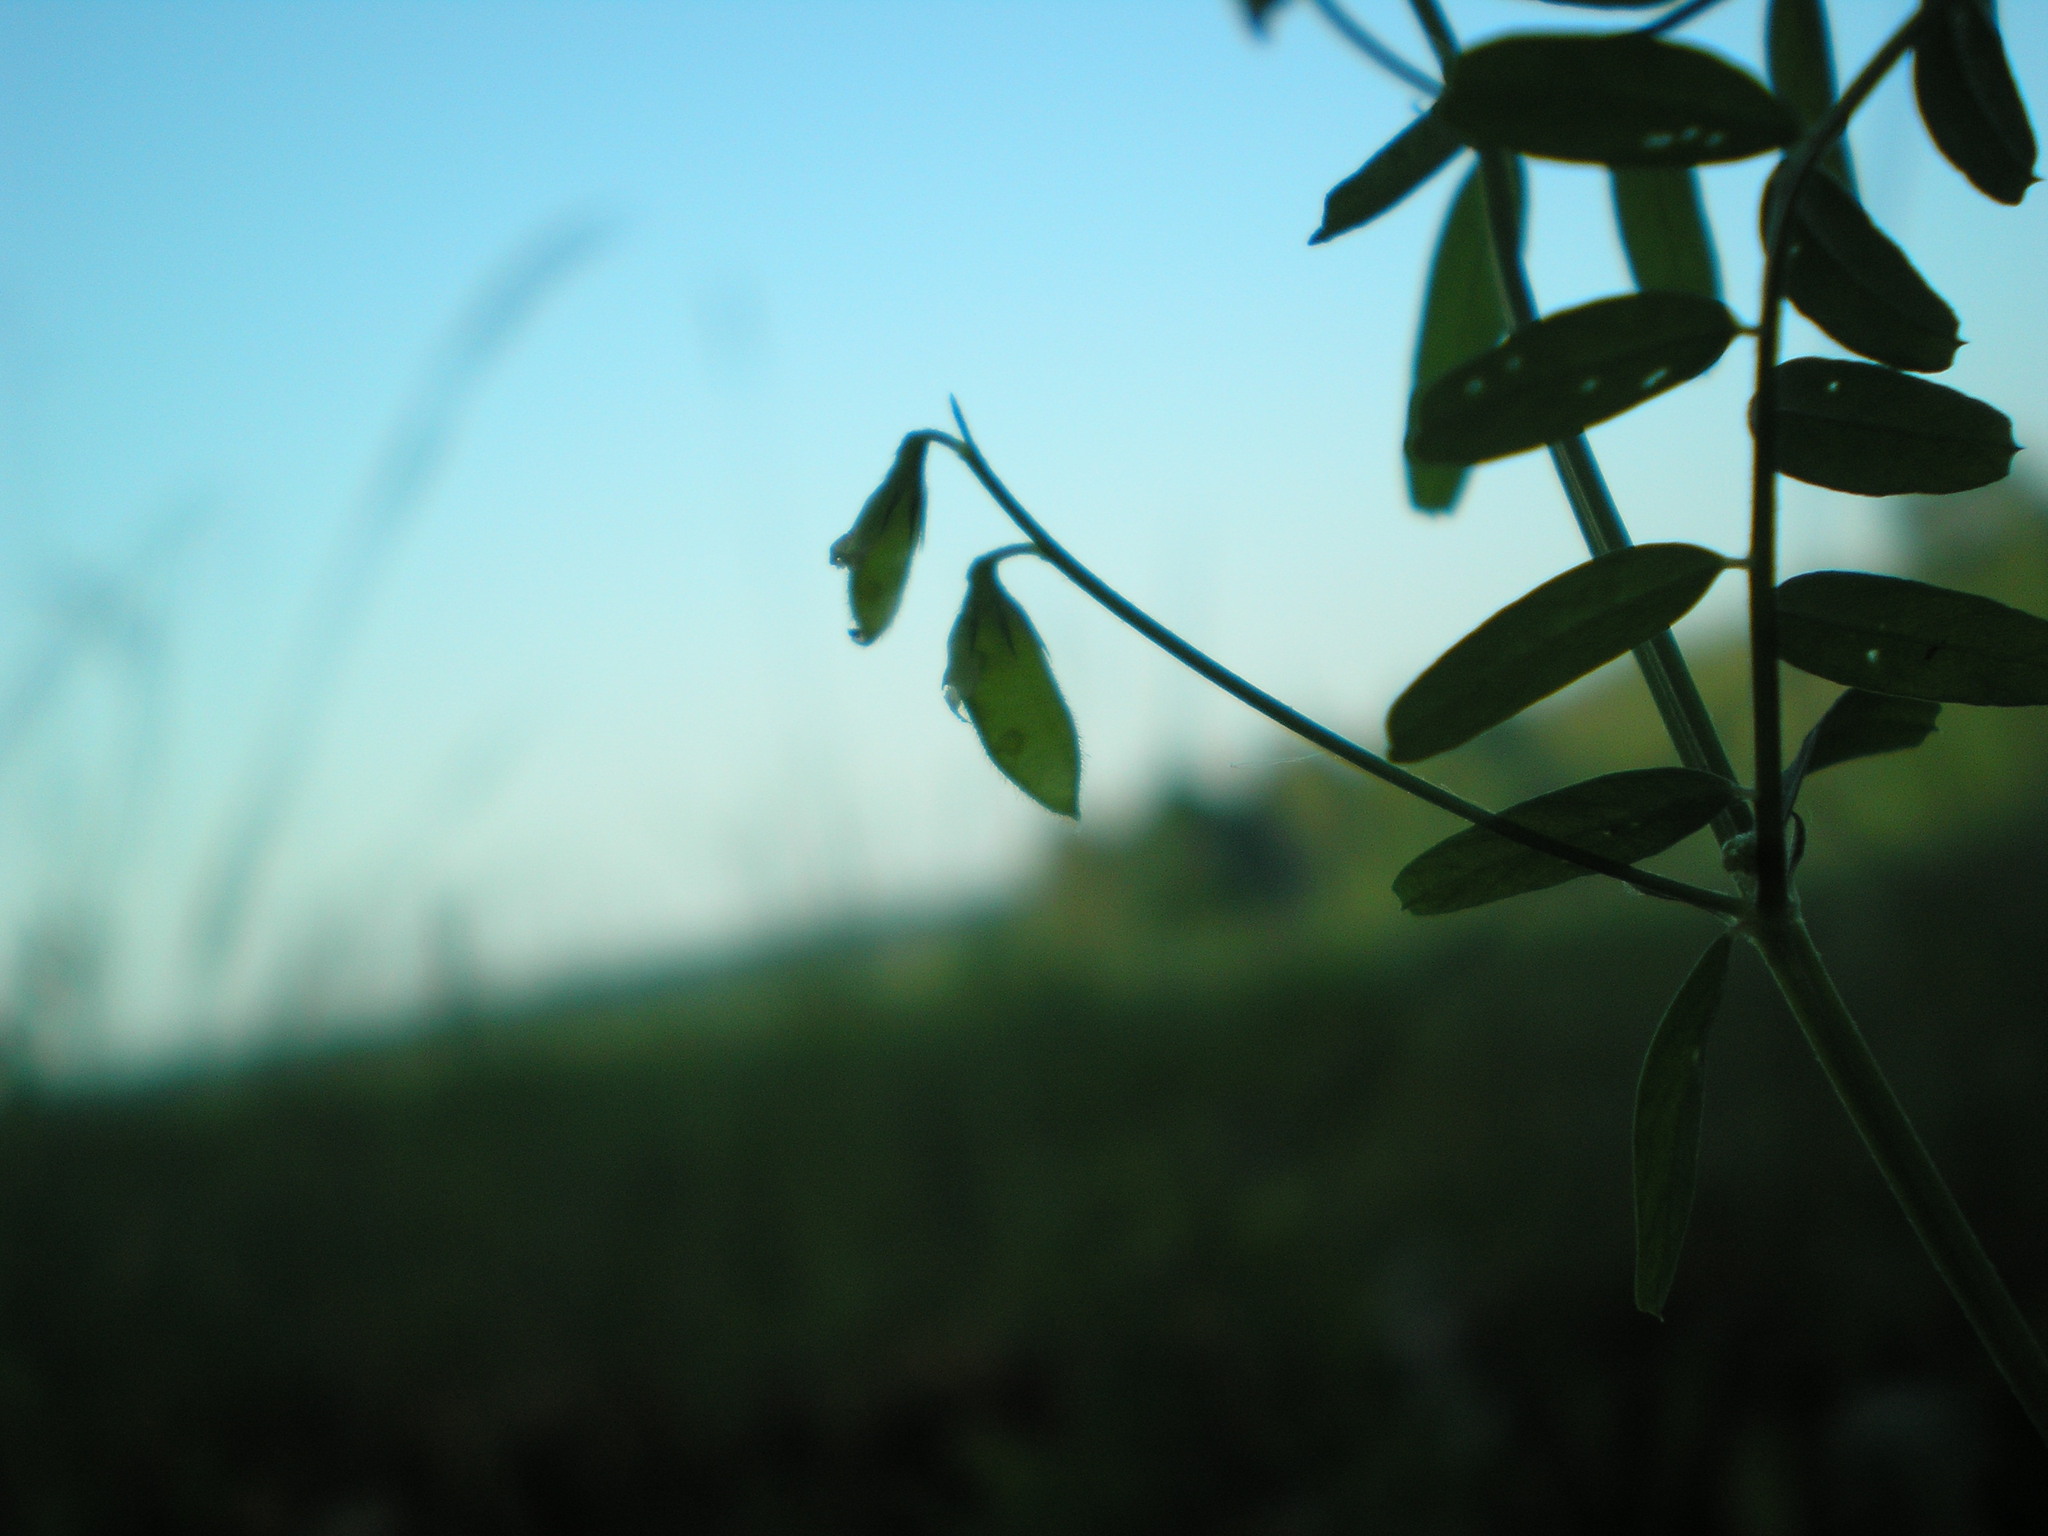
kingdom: Plantae
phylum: Tracheophyta
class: Magnoliopsida
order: Fabales
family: Fabaceae
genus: Vicia
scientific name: Vicia hirsuta
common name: Tiny vetch
